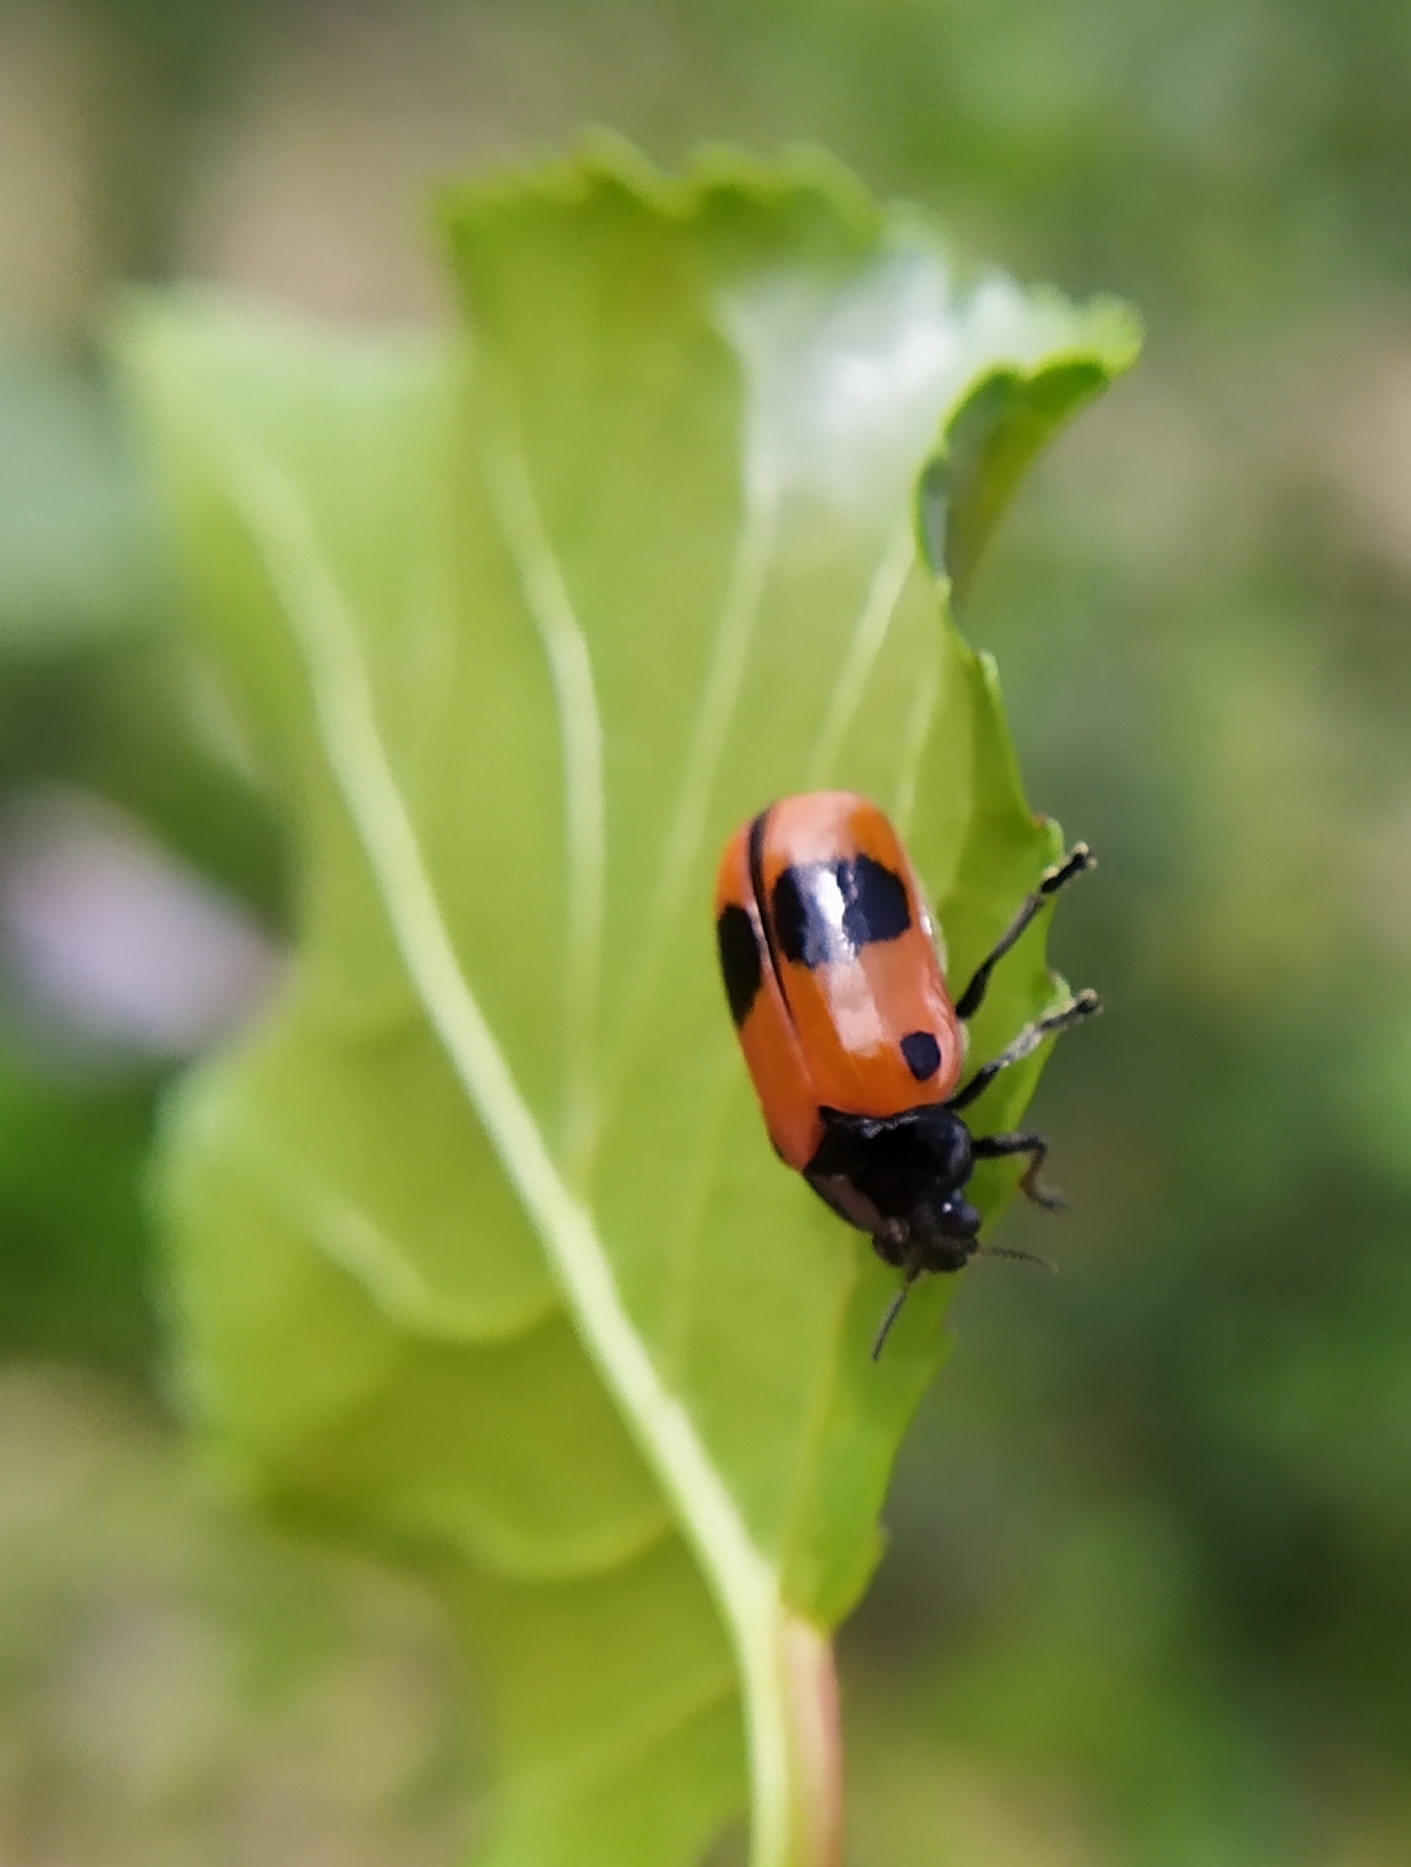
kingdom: Animalia
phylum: Arthropoda
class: Insecta
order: Coleoptera
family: Chrysomelidae
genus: Clytra
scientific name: Clytra laeviuscula
